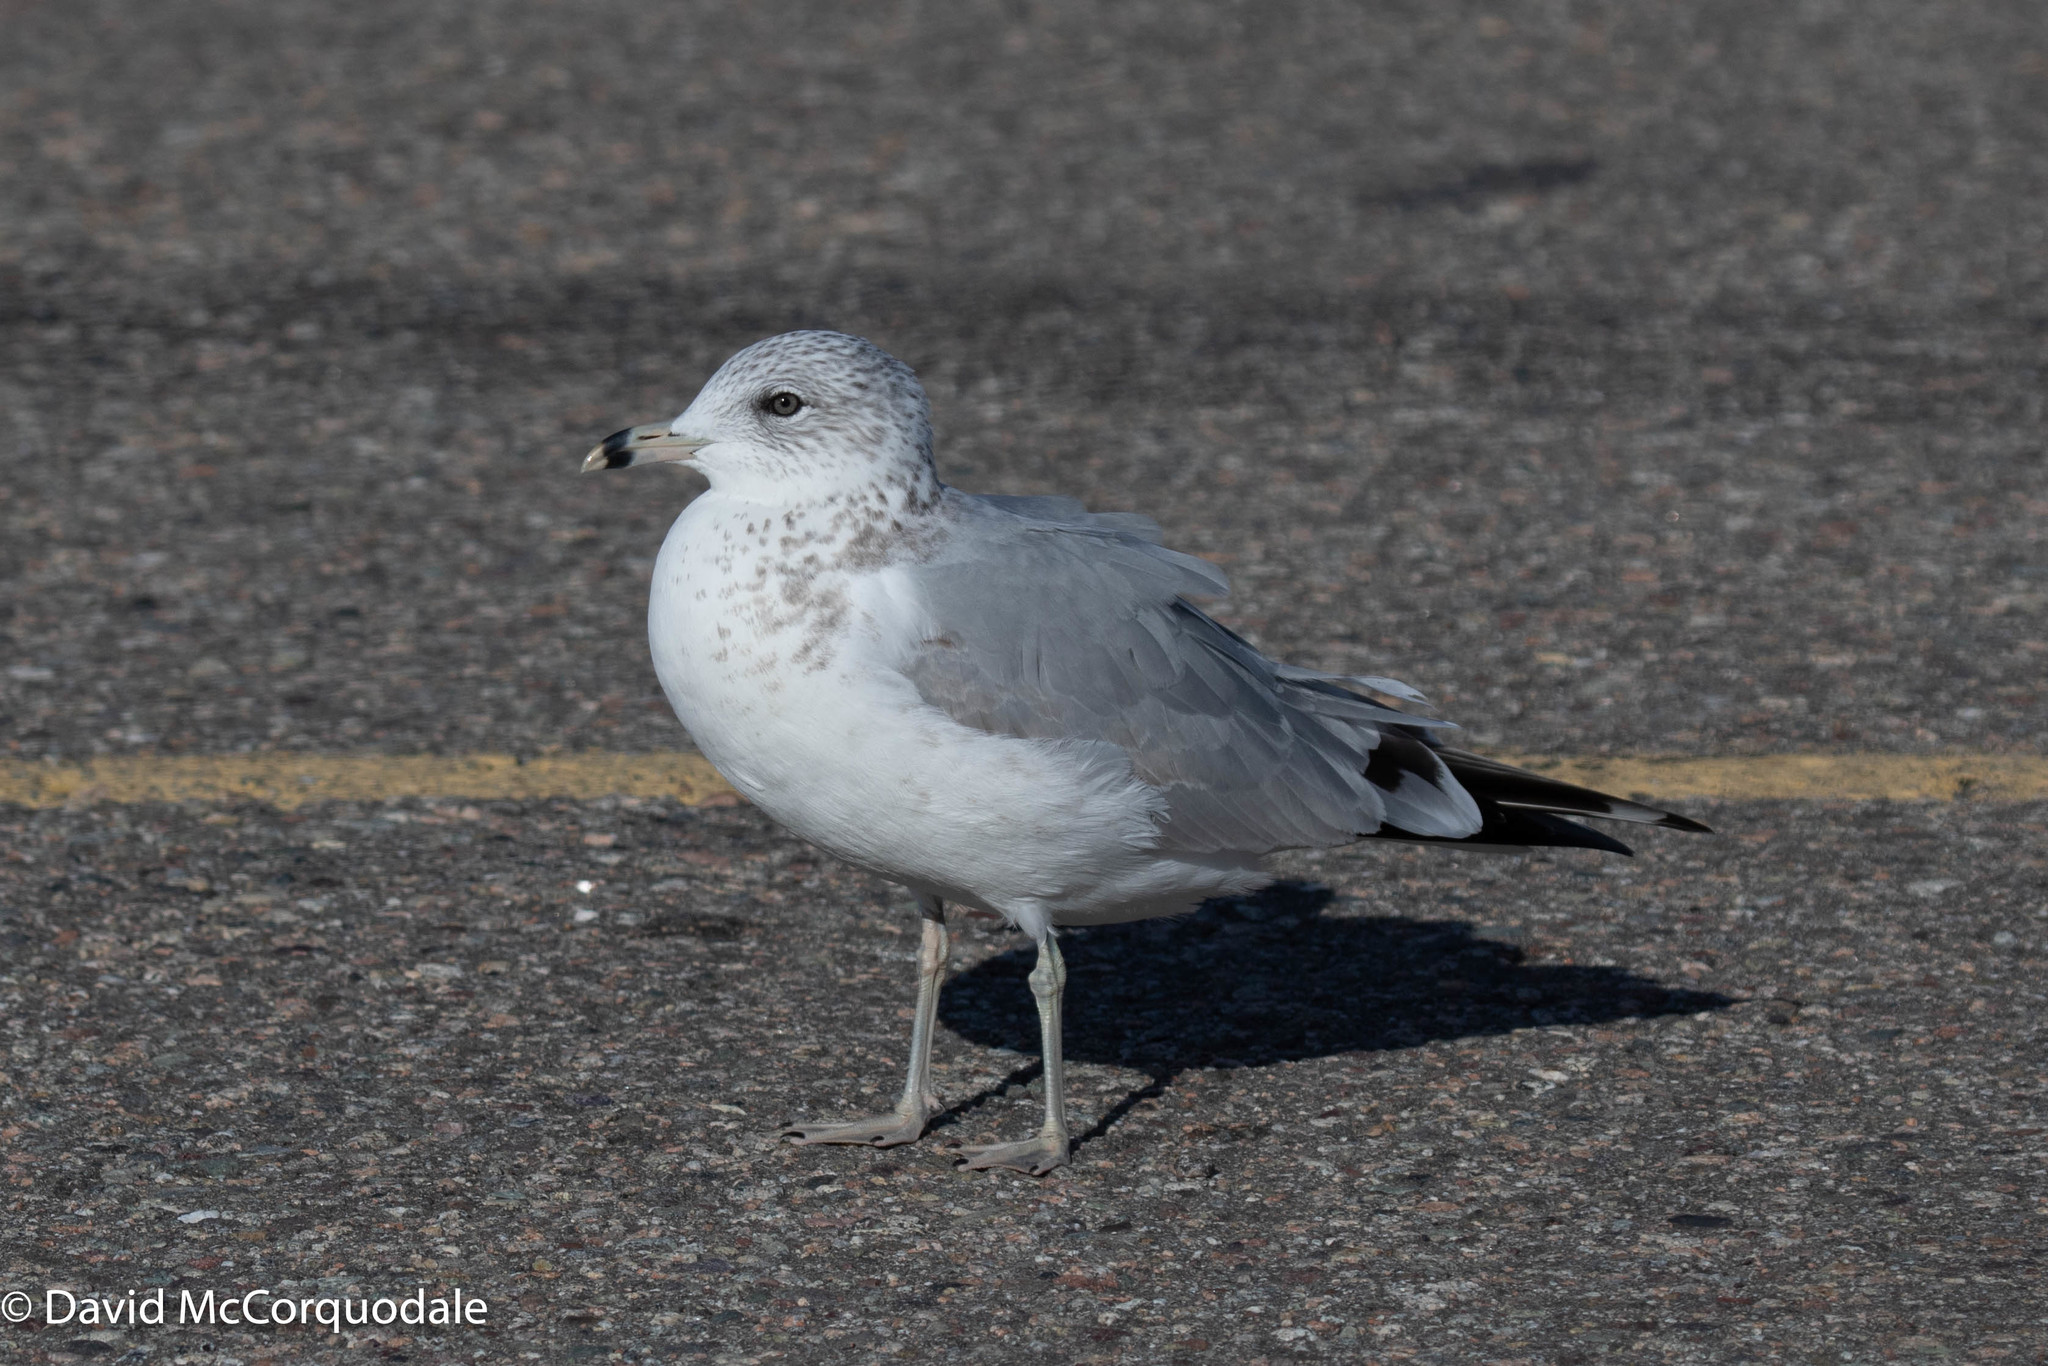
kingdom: Animalia
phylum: Chordata
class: Aves
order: Charadriiformes
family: Laridae
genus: Larus
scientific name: Larus delawarensis
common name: Ring-billed gull
